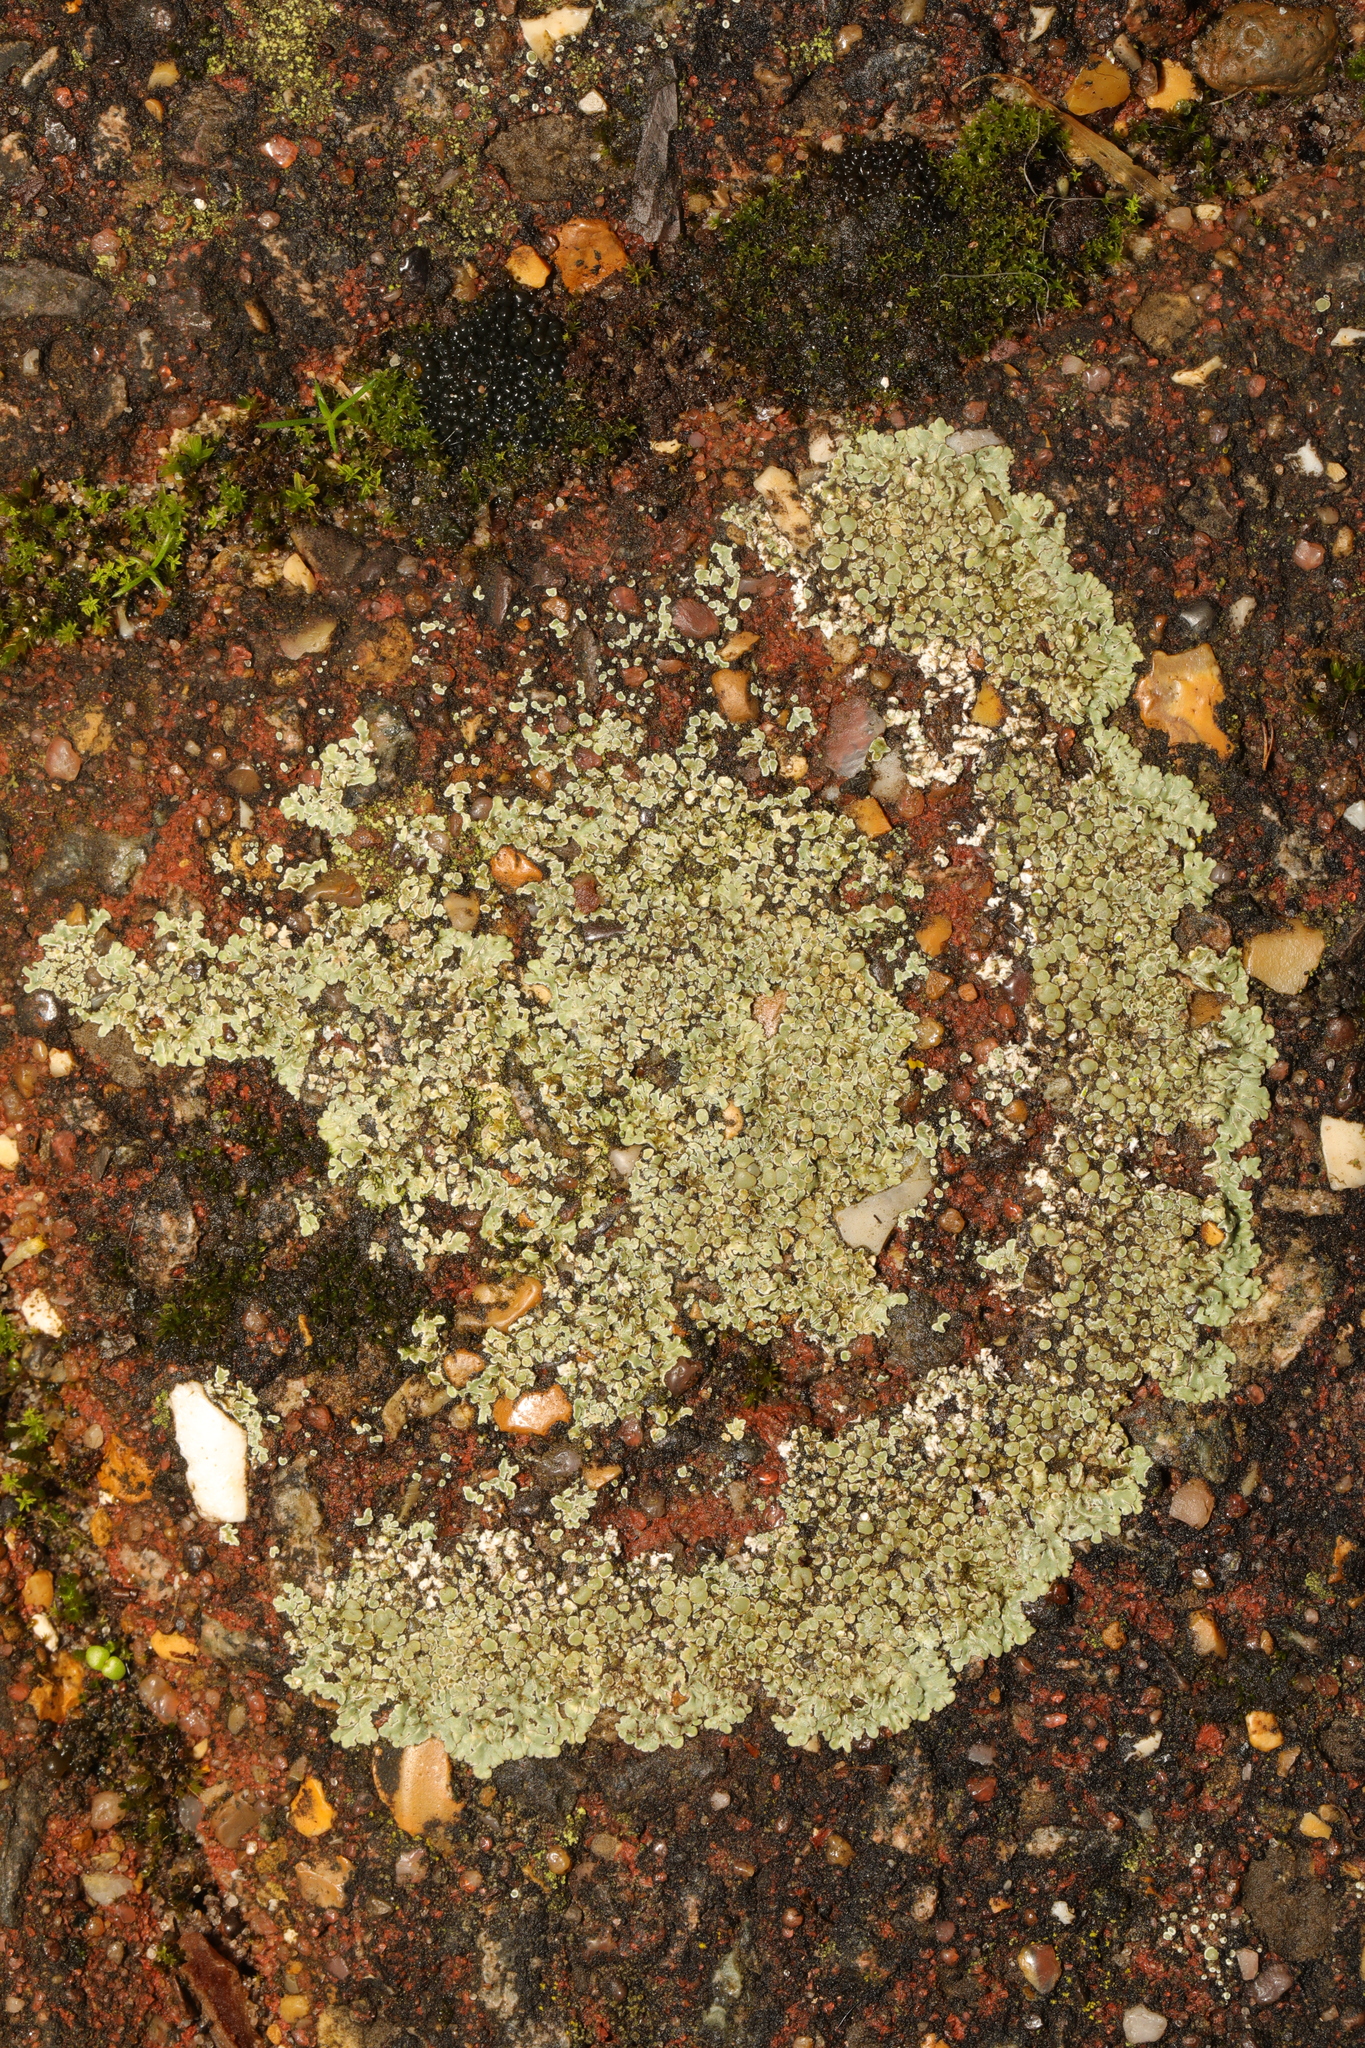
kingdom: Fungi
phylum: Ascomycota
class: Lecanoromycetes
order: Lecanorales
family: Lecanoraceae
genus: Protoparmeliopsis
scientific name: Protoparmeliopsis muralis
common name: Stonewall rim lichen
